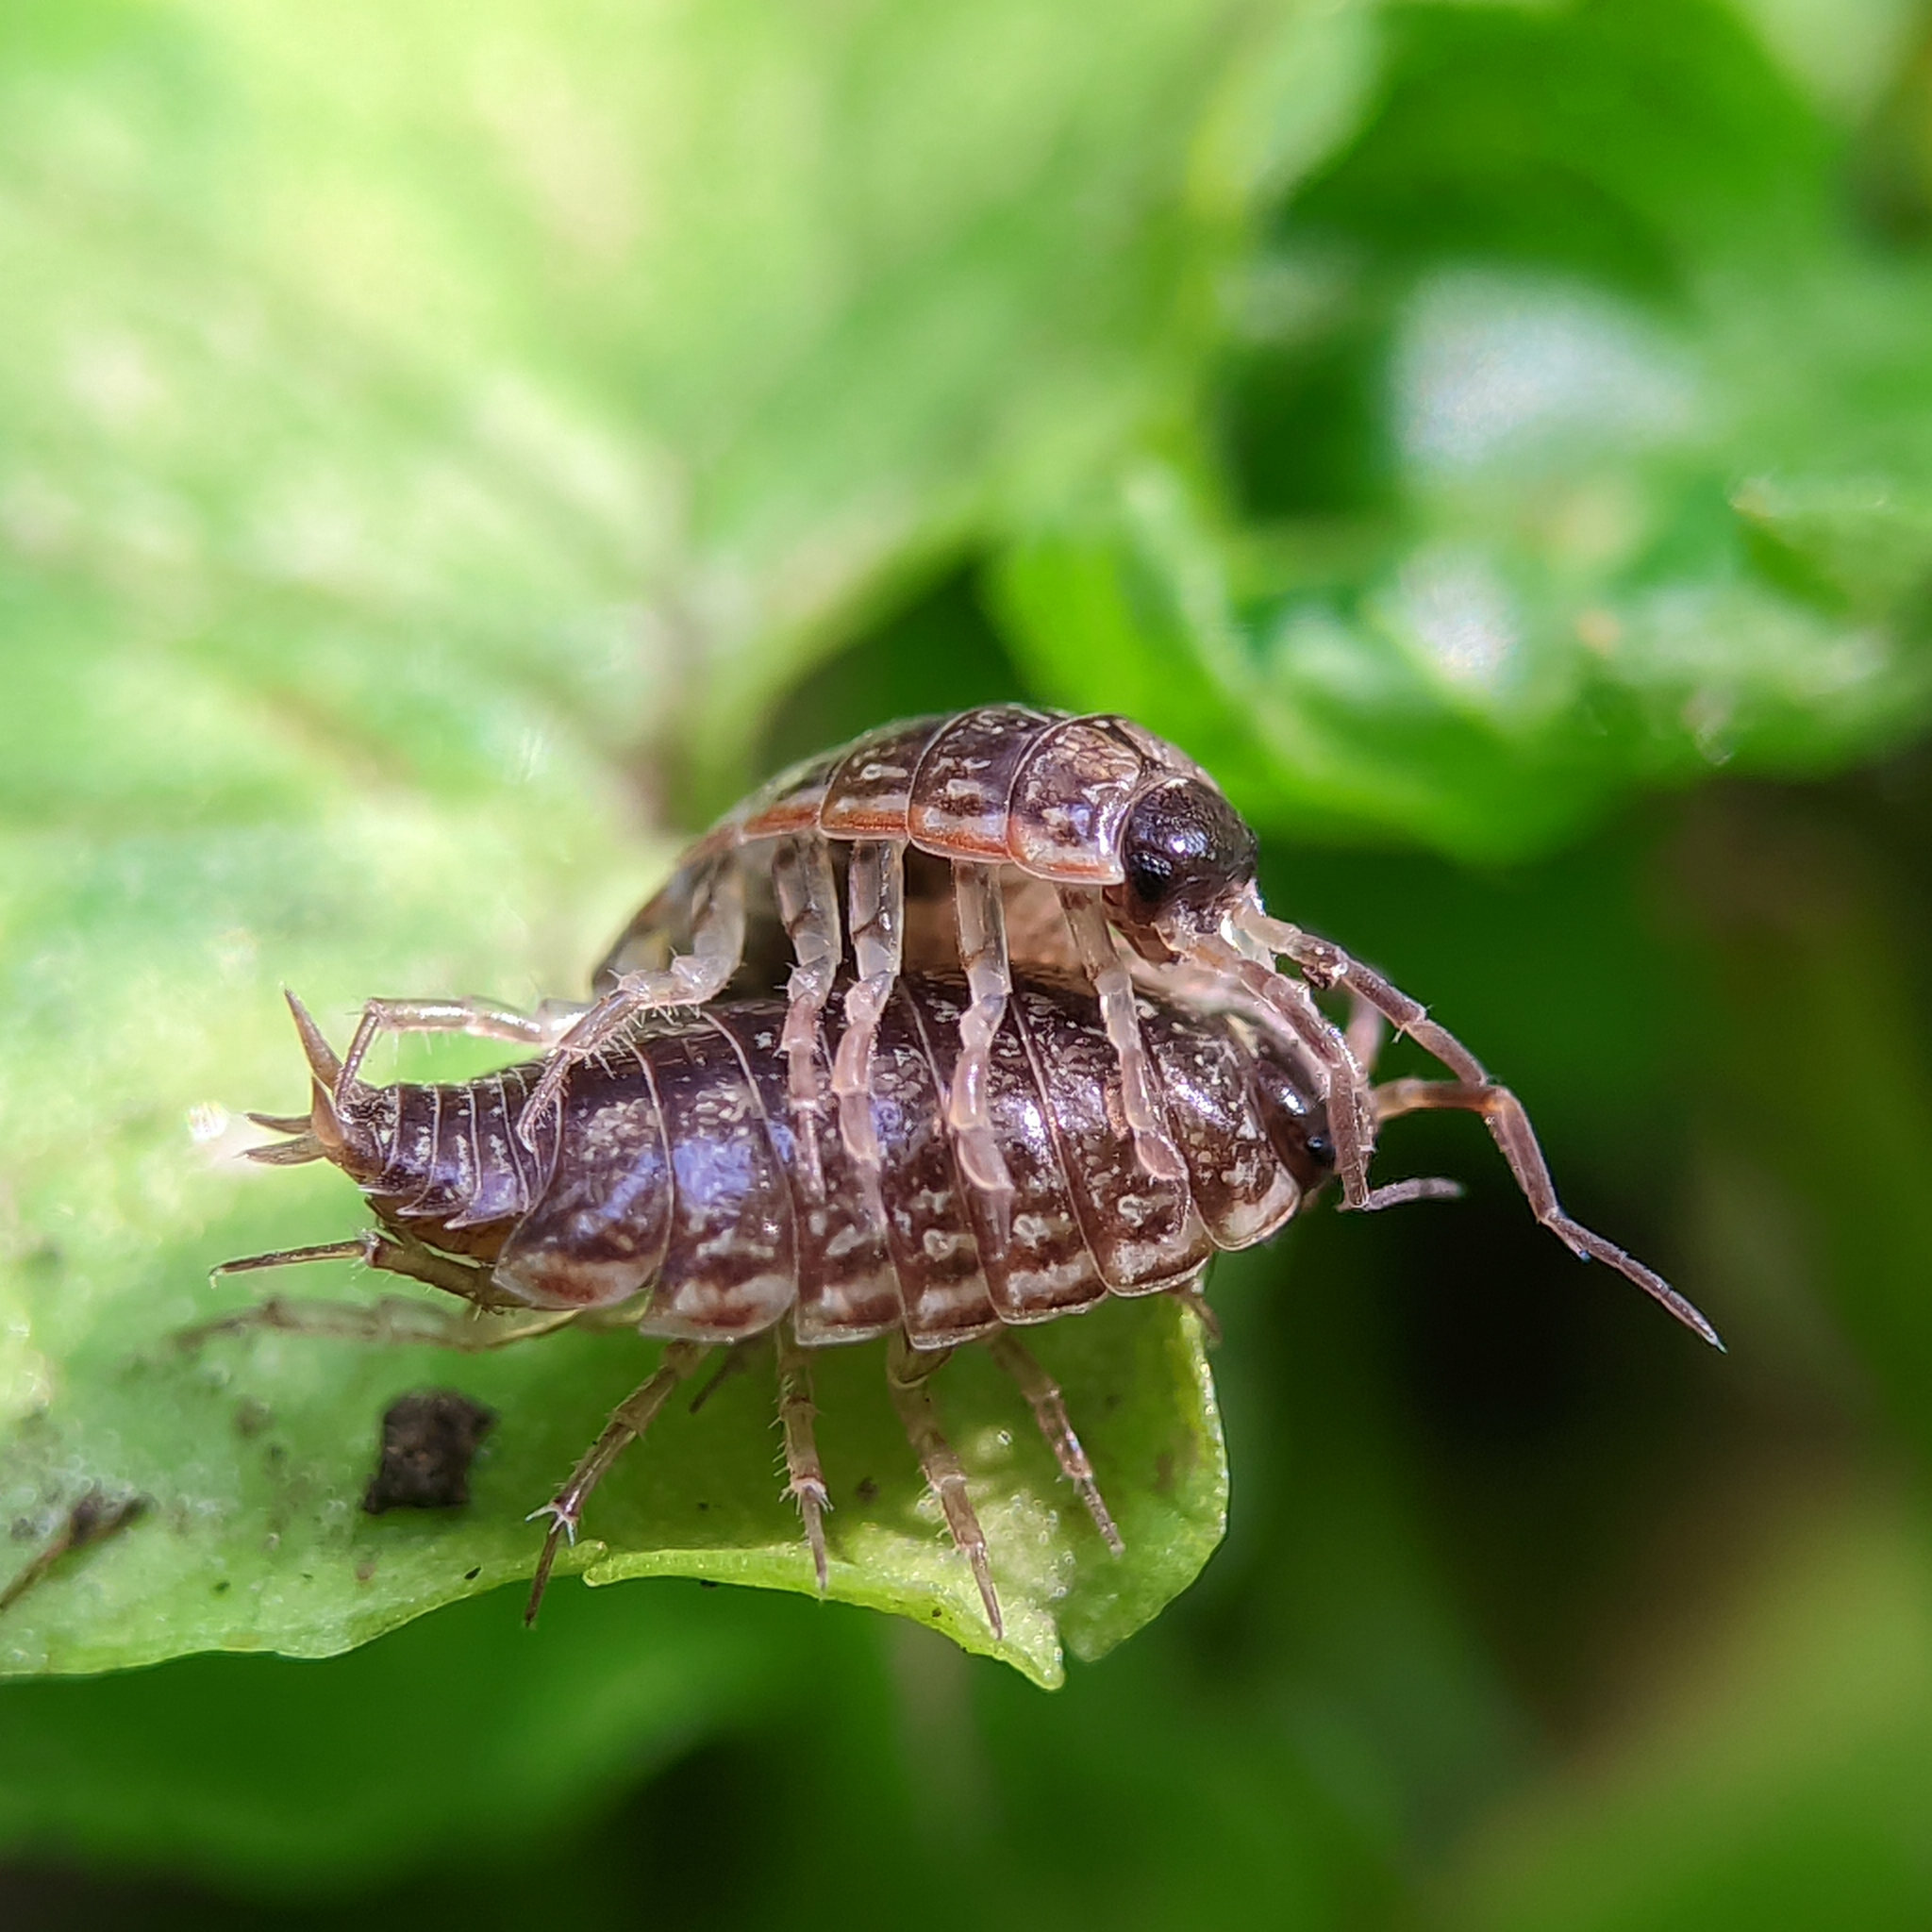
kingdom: Animalia
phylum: Arthropoda
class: Malacostraca
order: Isopoda
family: Philosciidae
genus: Philoscia
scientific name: Philoscia muscorum
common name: Common striped woodlouse
